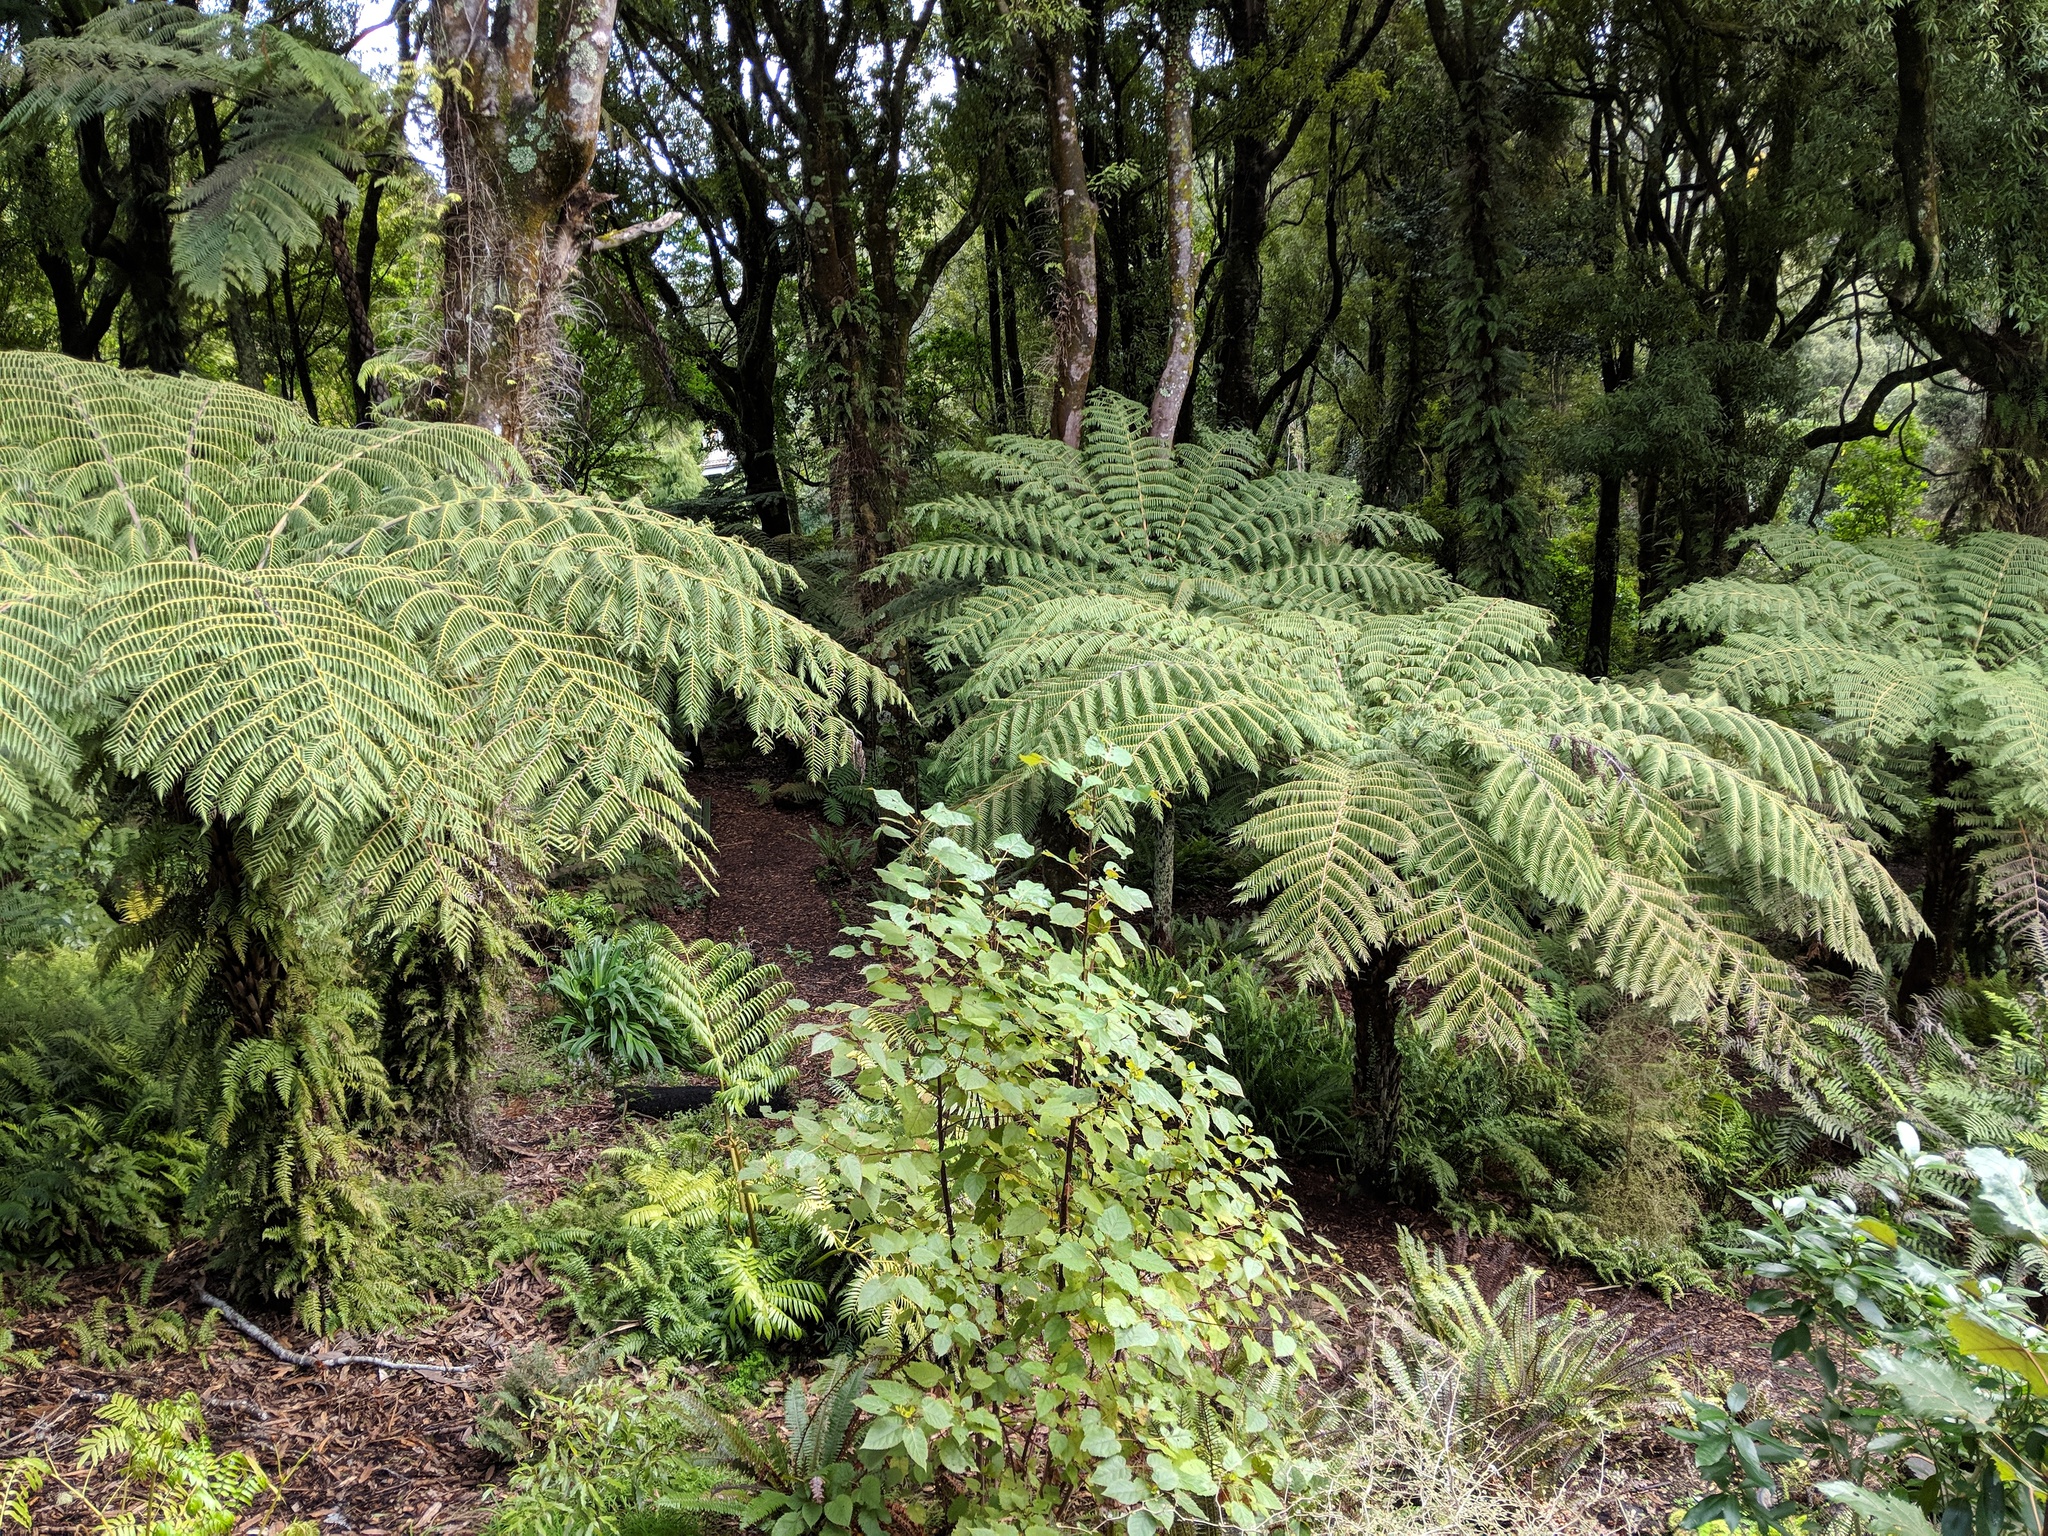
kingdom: Plantae
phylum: Tracheophyta
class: Polypodiopsida
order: Cyatheales
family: Cyatheaceae
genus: Alsophila
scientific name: Alsophila dealbata
